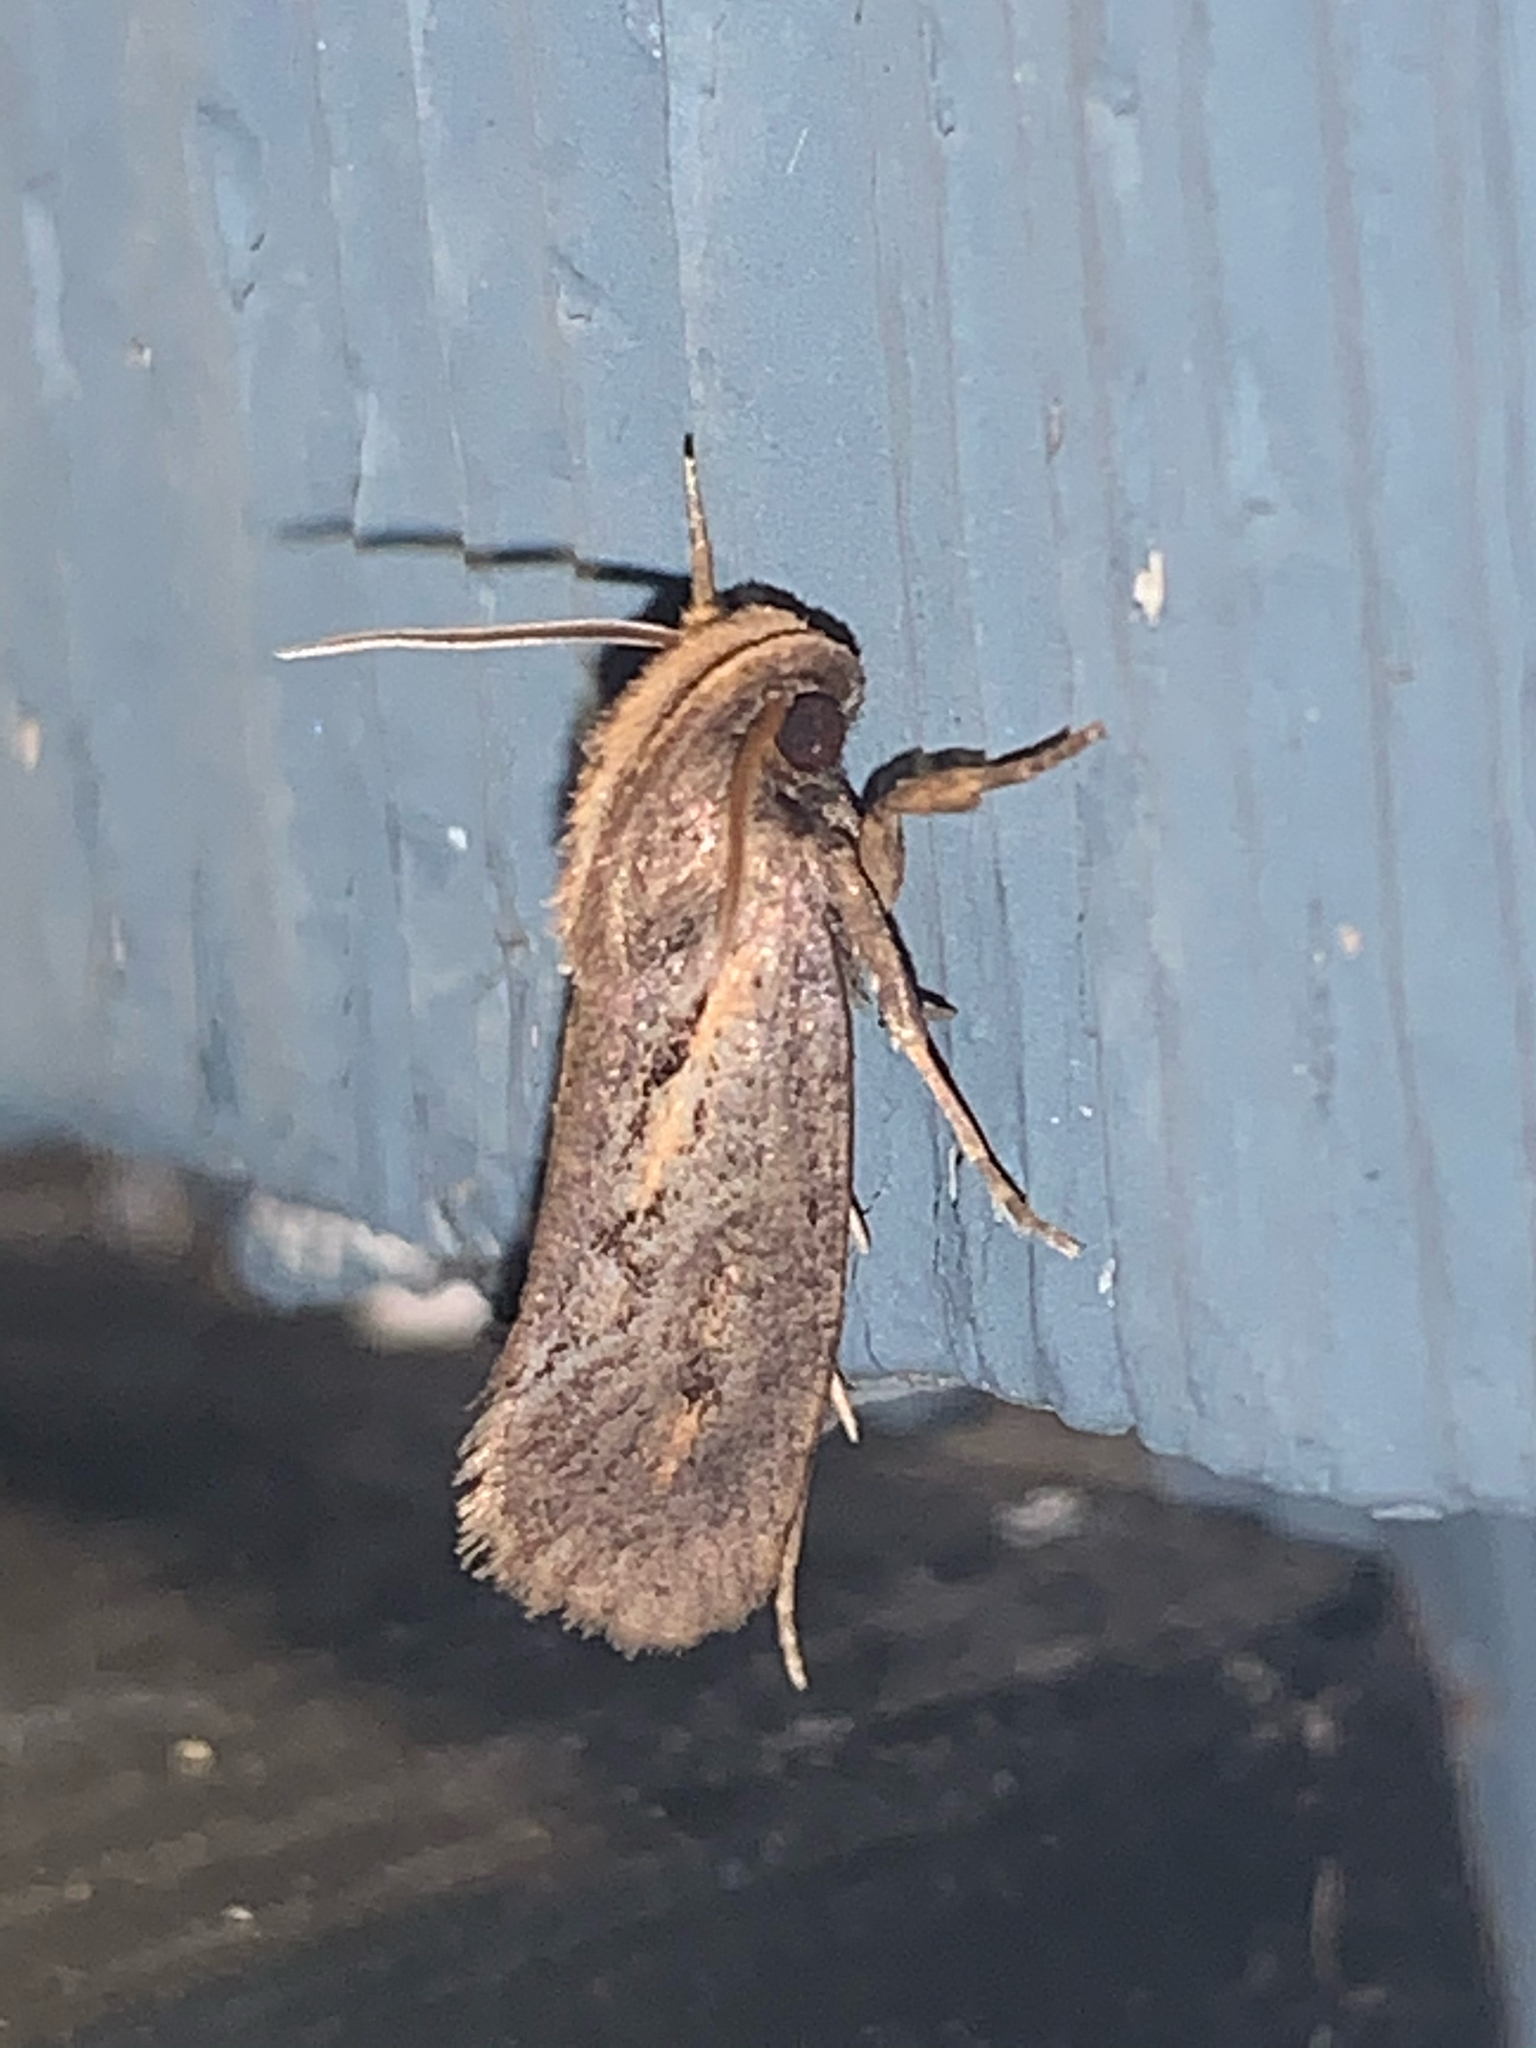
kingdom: Animalia
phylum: Arthropoda
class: Insecta
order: Lepidoptera
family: Tineidae
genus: Acrolophus
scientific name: Acrolophus popeanella
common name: Clemens' grass tubeworm moth
